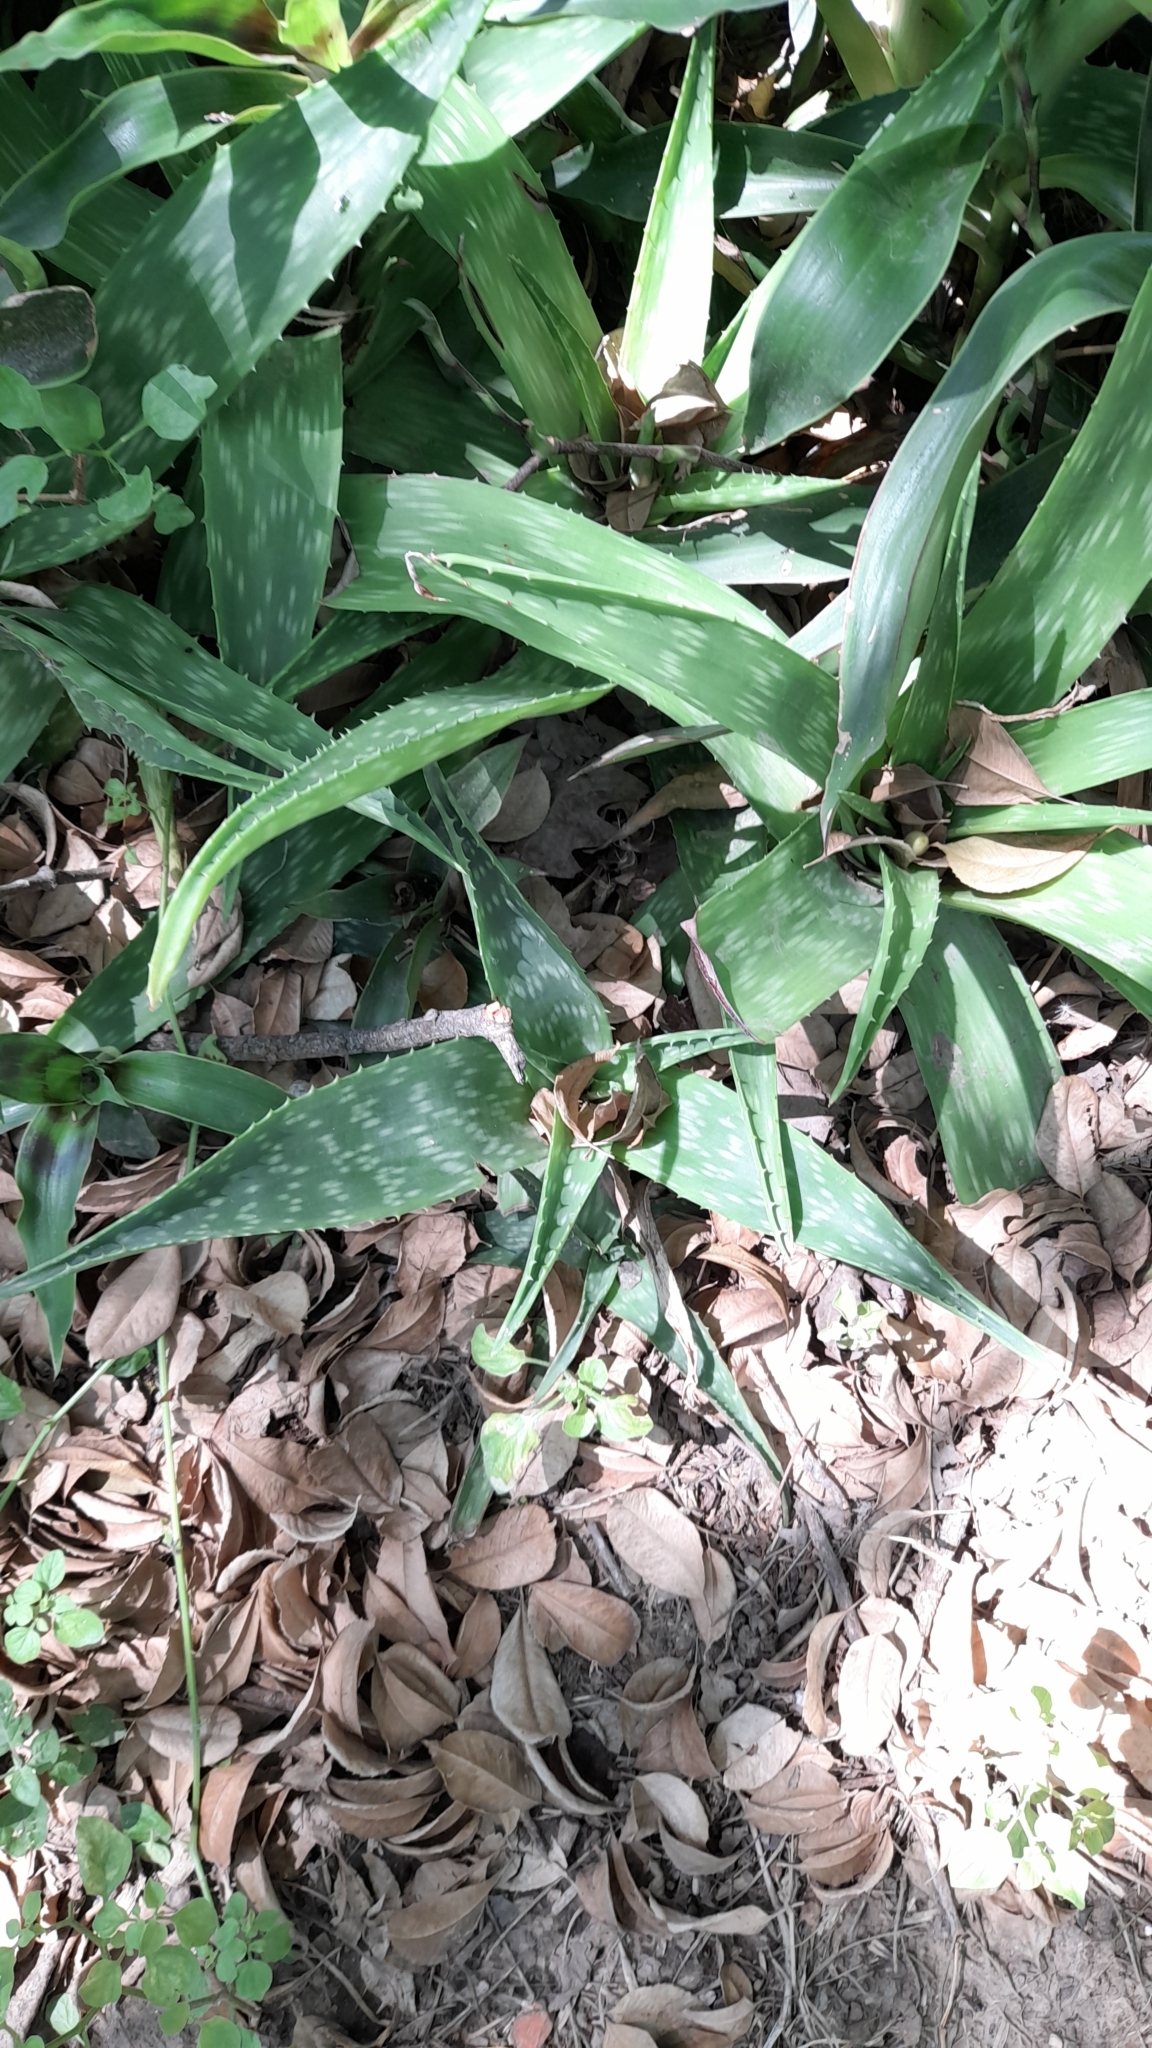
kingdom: Plantae
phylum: Tracheophyta
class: Liliopsida
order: Asparagales
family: Asphodelaceae
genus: Aloe
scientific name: Aloe maculata
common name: Broadleaf aloe
